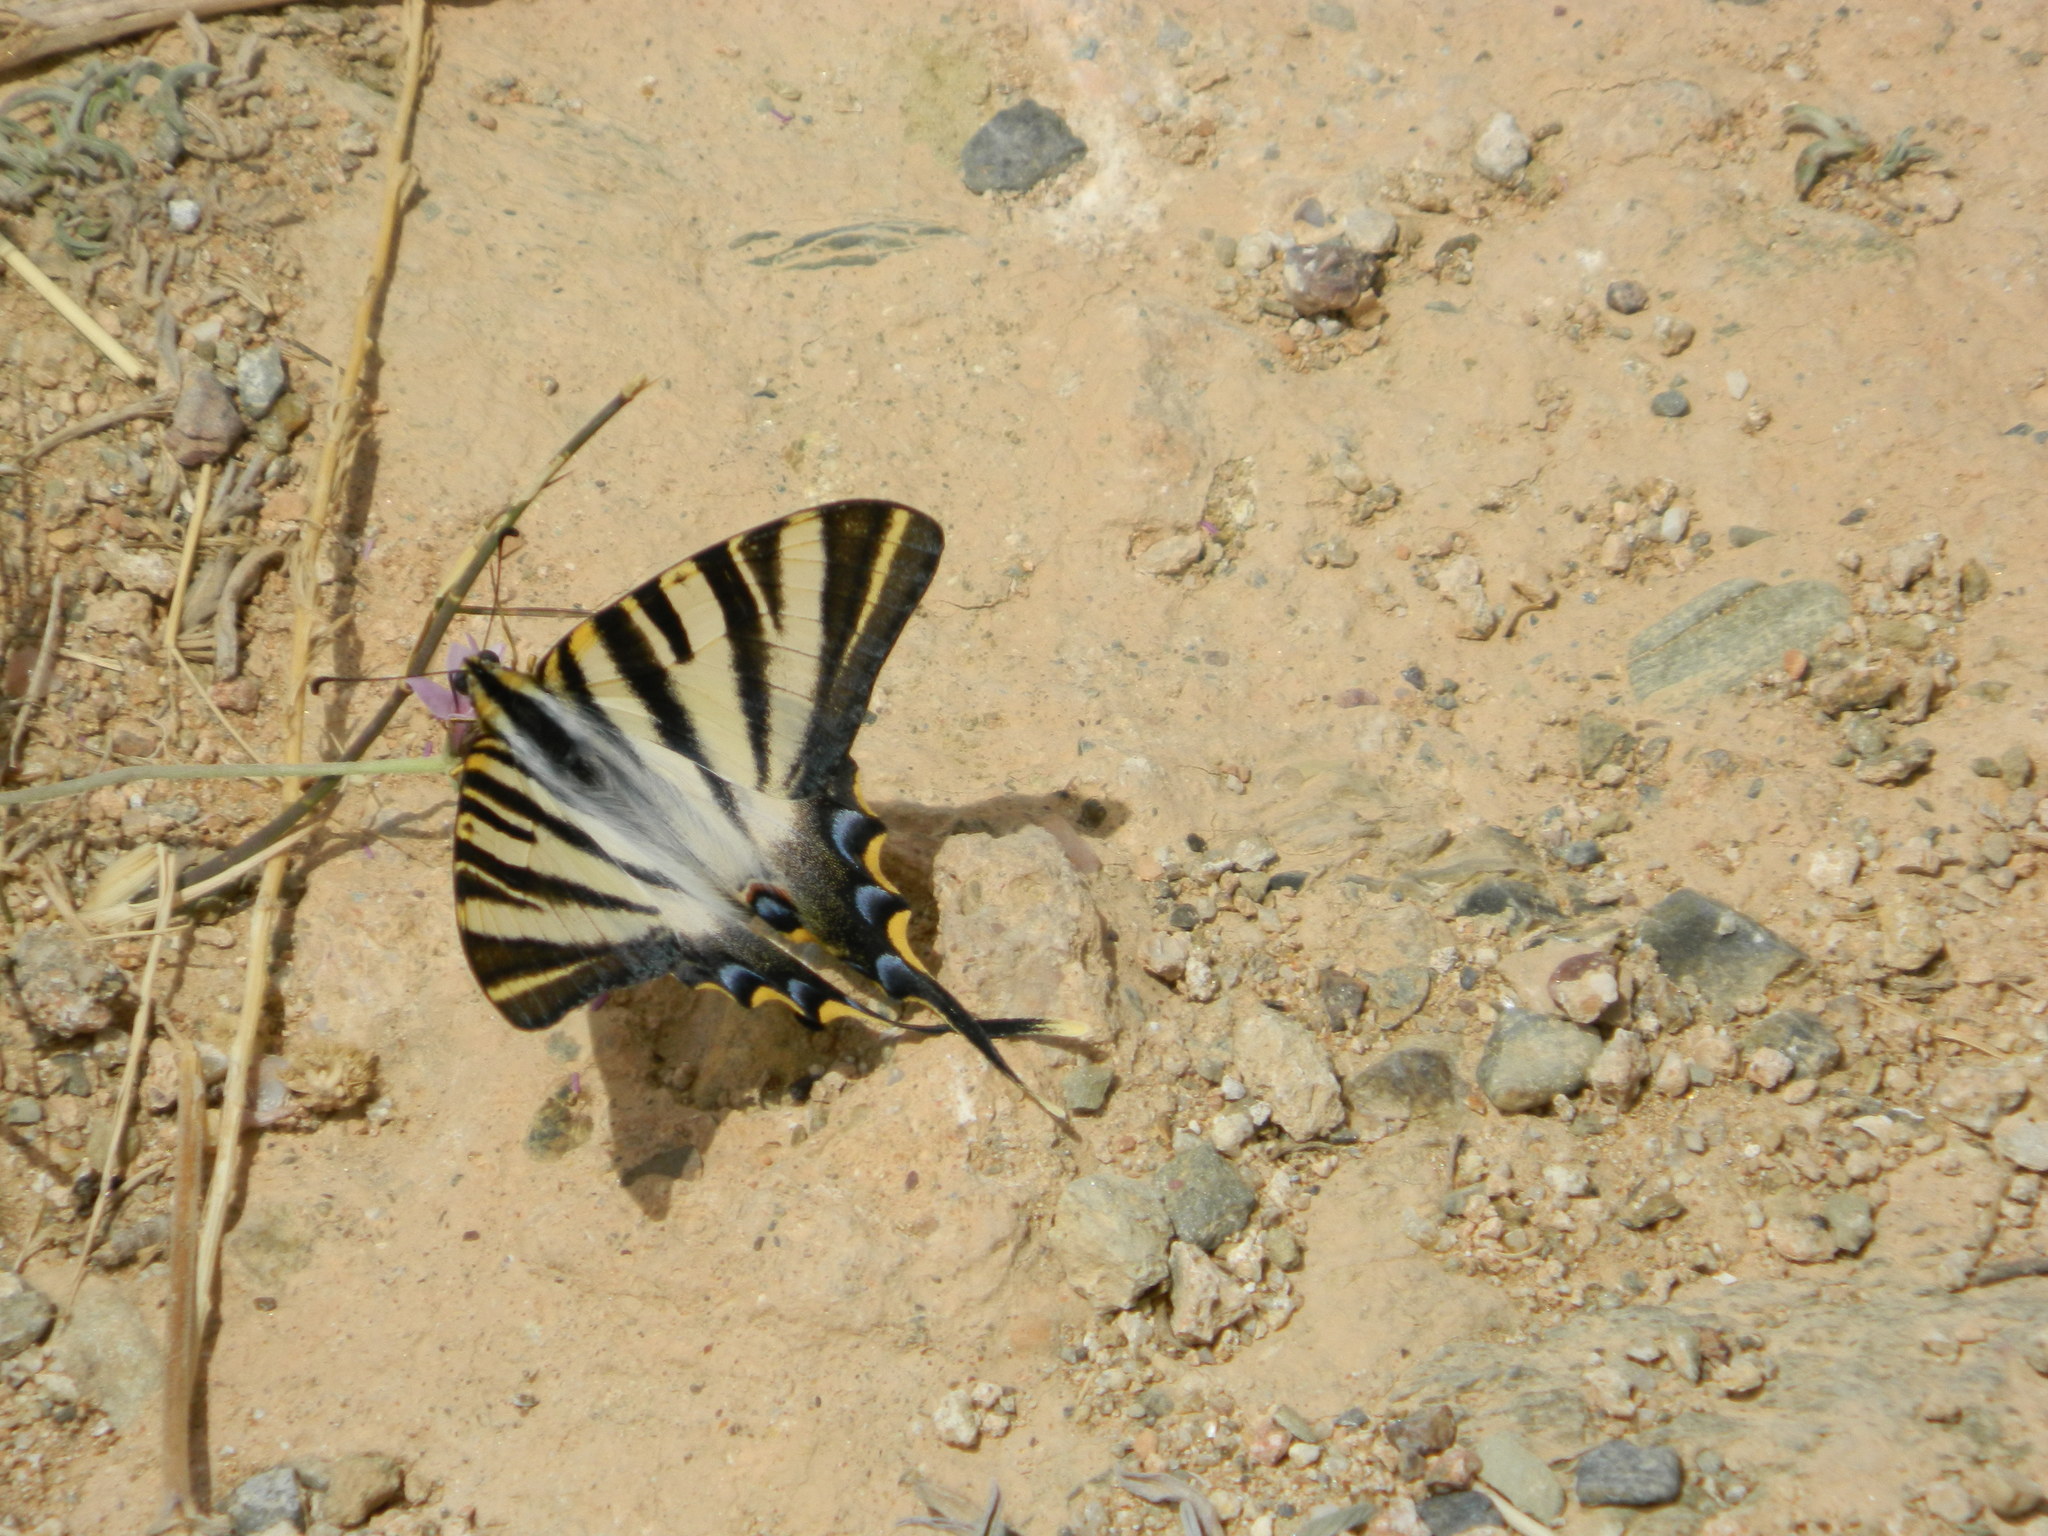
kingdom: Animalia
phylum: Arthropoda
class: Insecta
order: Lepidoptera
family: Papilionidae
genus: Iphiclides
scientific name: Iphiclides feisthamelii
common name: Iberian scarce swallowtail
